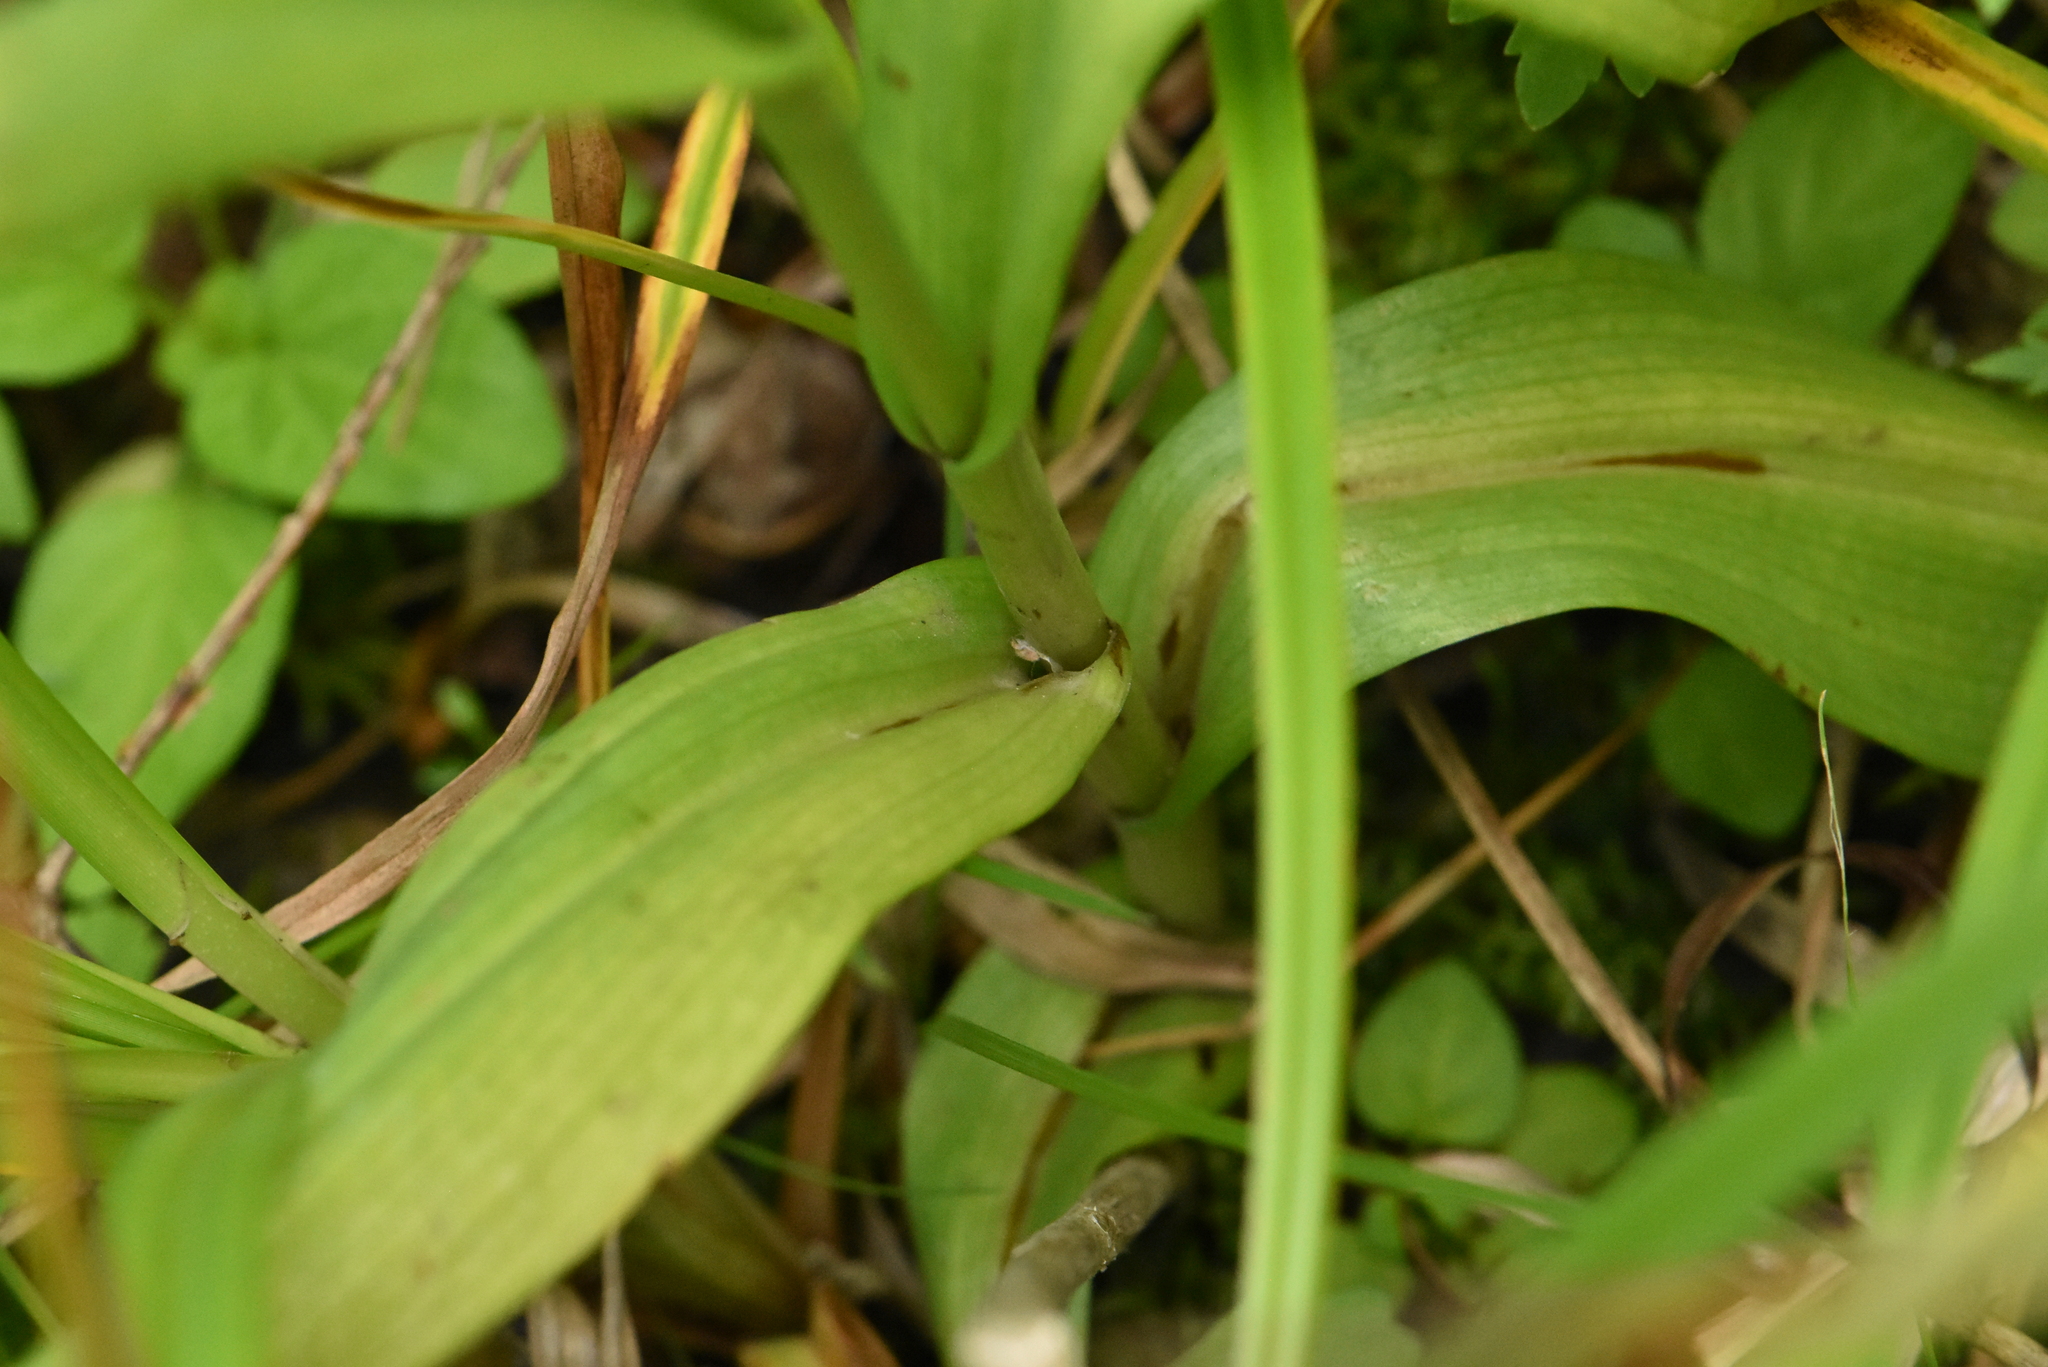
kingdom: Plantae
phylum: Tracheophyta
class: Liliopsida
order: Asparagales
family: Orchidaceae
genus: Dactylorhiza
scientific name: Dactylorhiza sibirica
